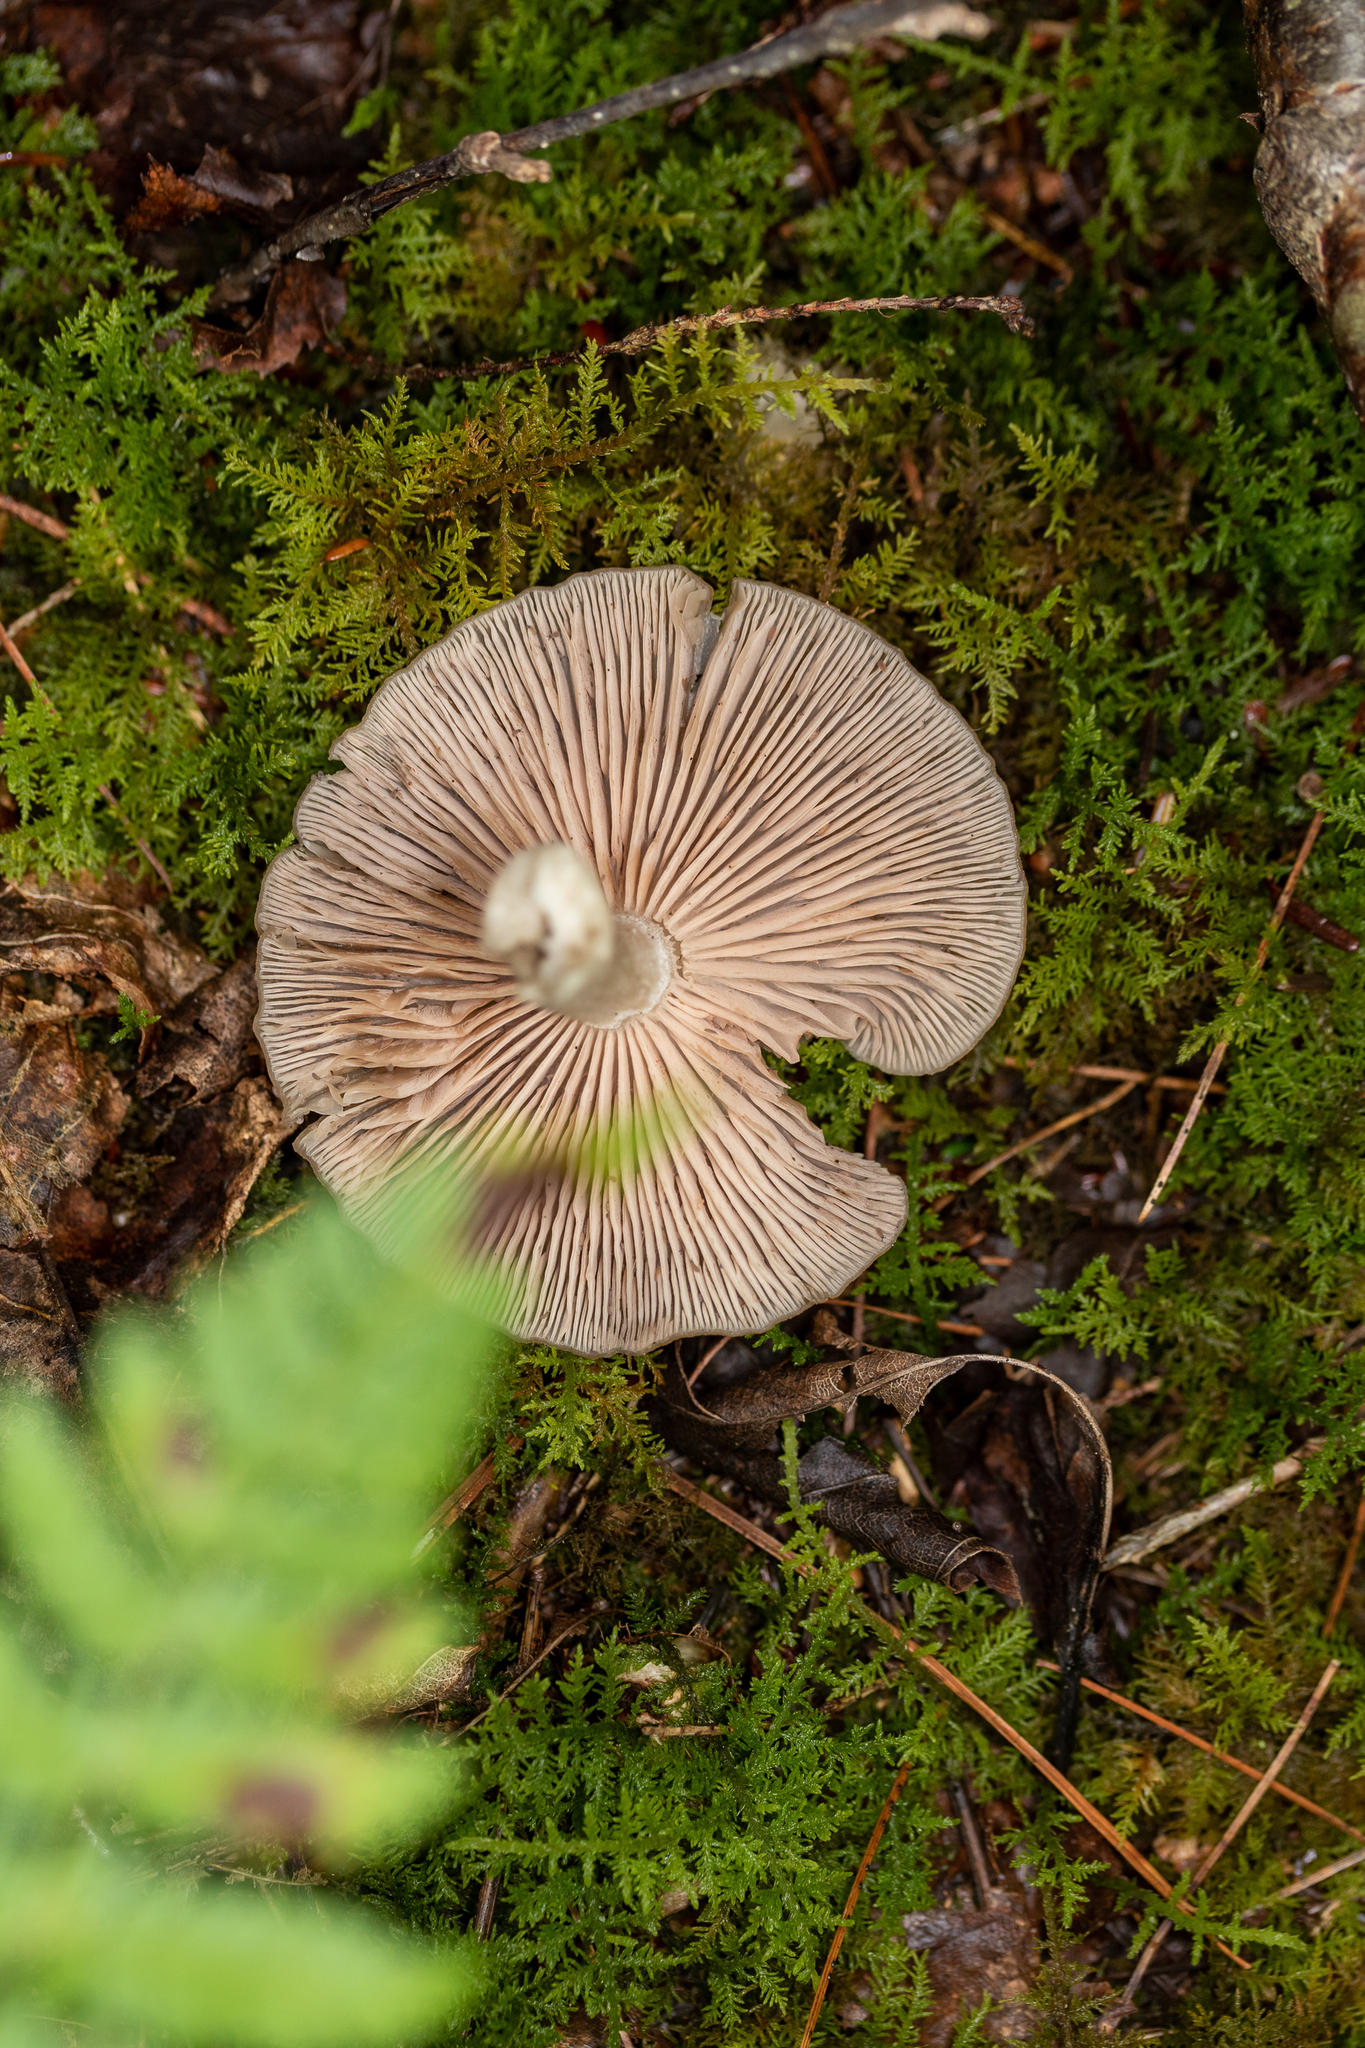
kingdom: Fungi
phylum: Basidiomycota
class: Agaricomycetes
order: Agaricales
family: Entolomataceae
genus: Entoloma
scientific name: Entoloma griseum
